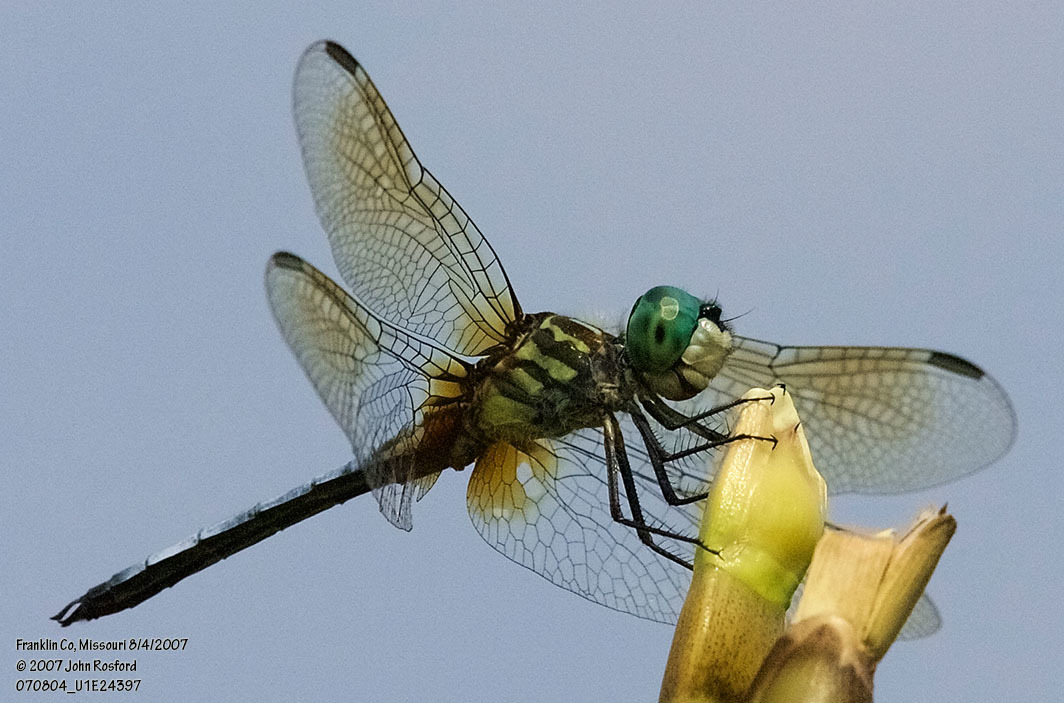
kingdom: Animalia
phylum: Arthropoda
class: Insecta
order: Odonata
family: Libellulidae
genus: Pachydiplax
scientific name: Pachydiplax longipennis
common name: Blue dasher
